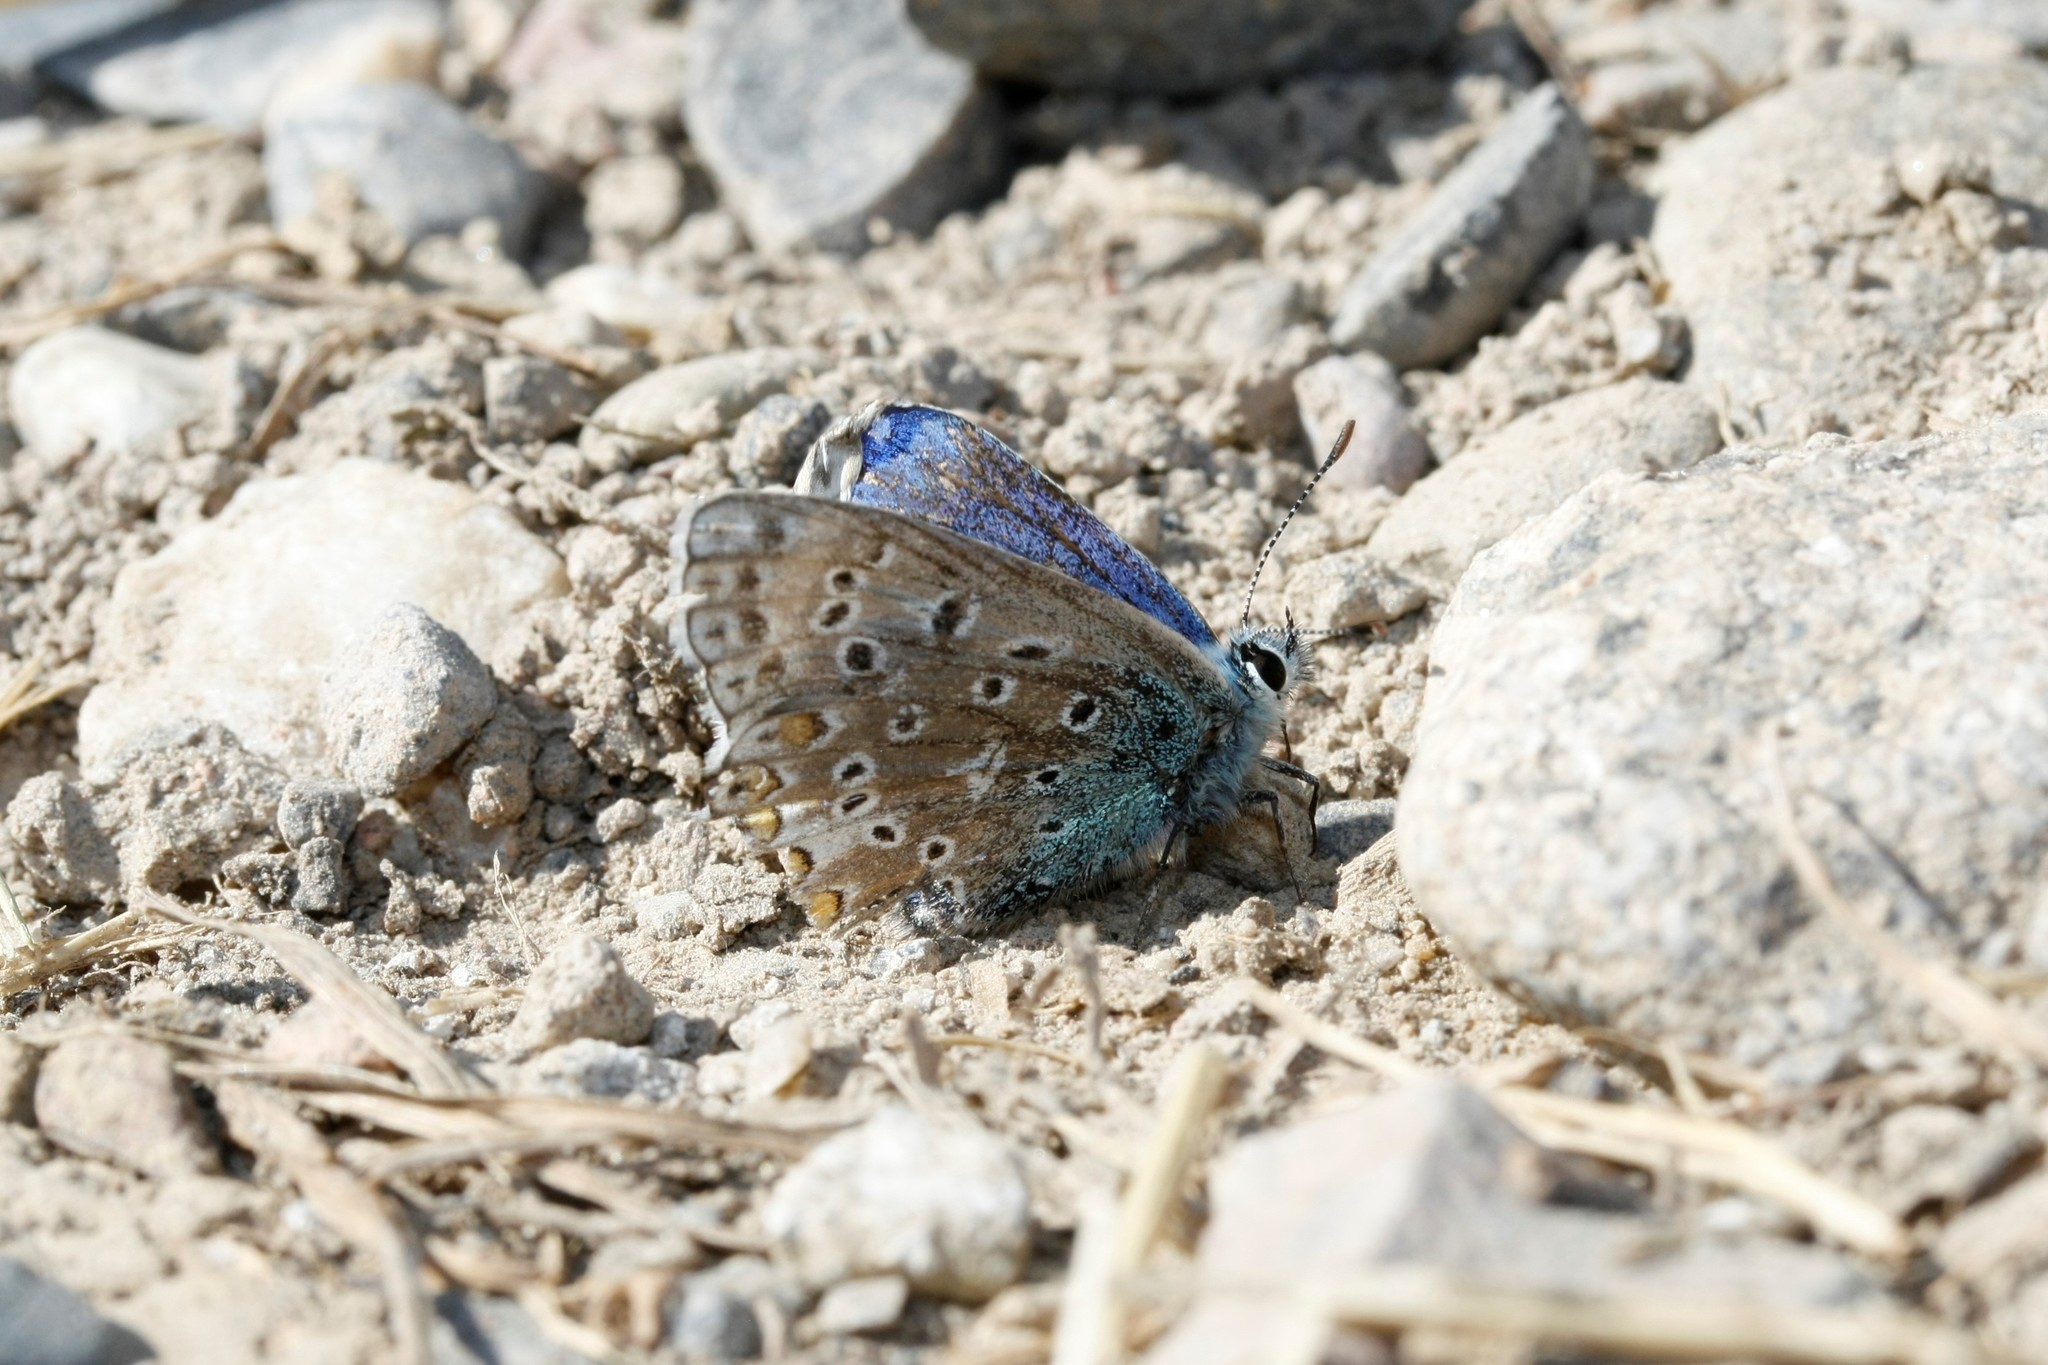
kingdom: Animalia
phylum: Arthropoda
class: Insecta
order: Lepidoptera
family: Lycaenidae
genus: Lysandra
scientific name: Lysandra bellargus
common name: Adonis blue
